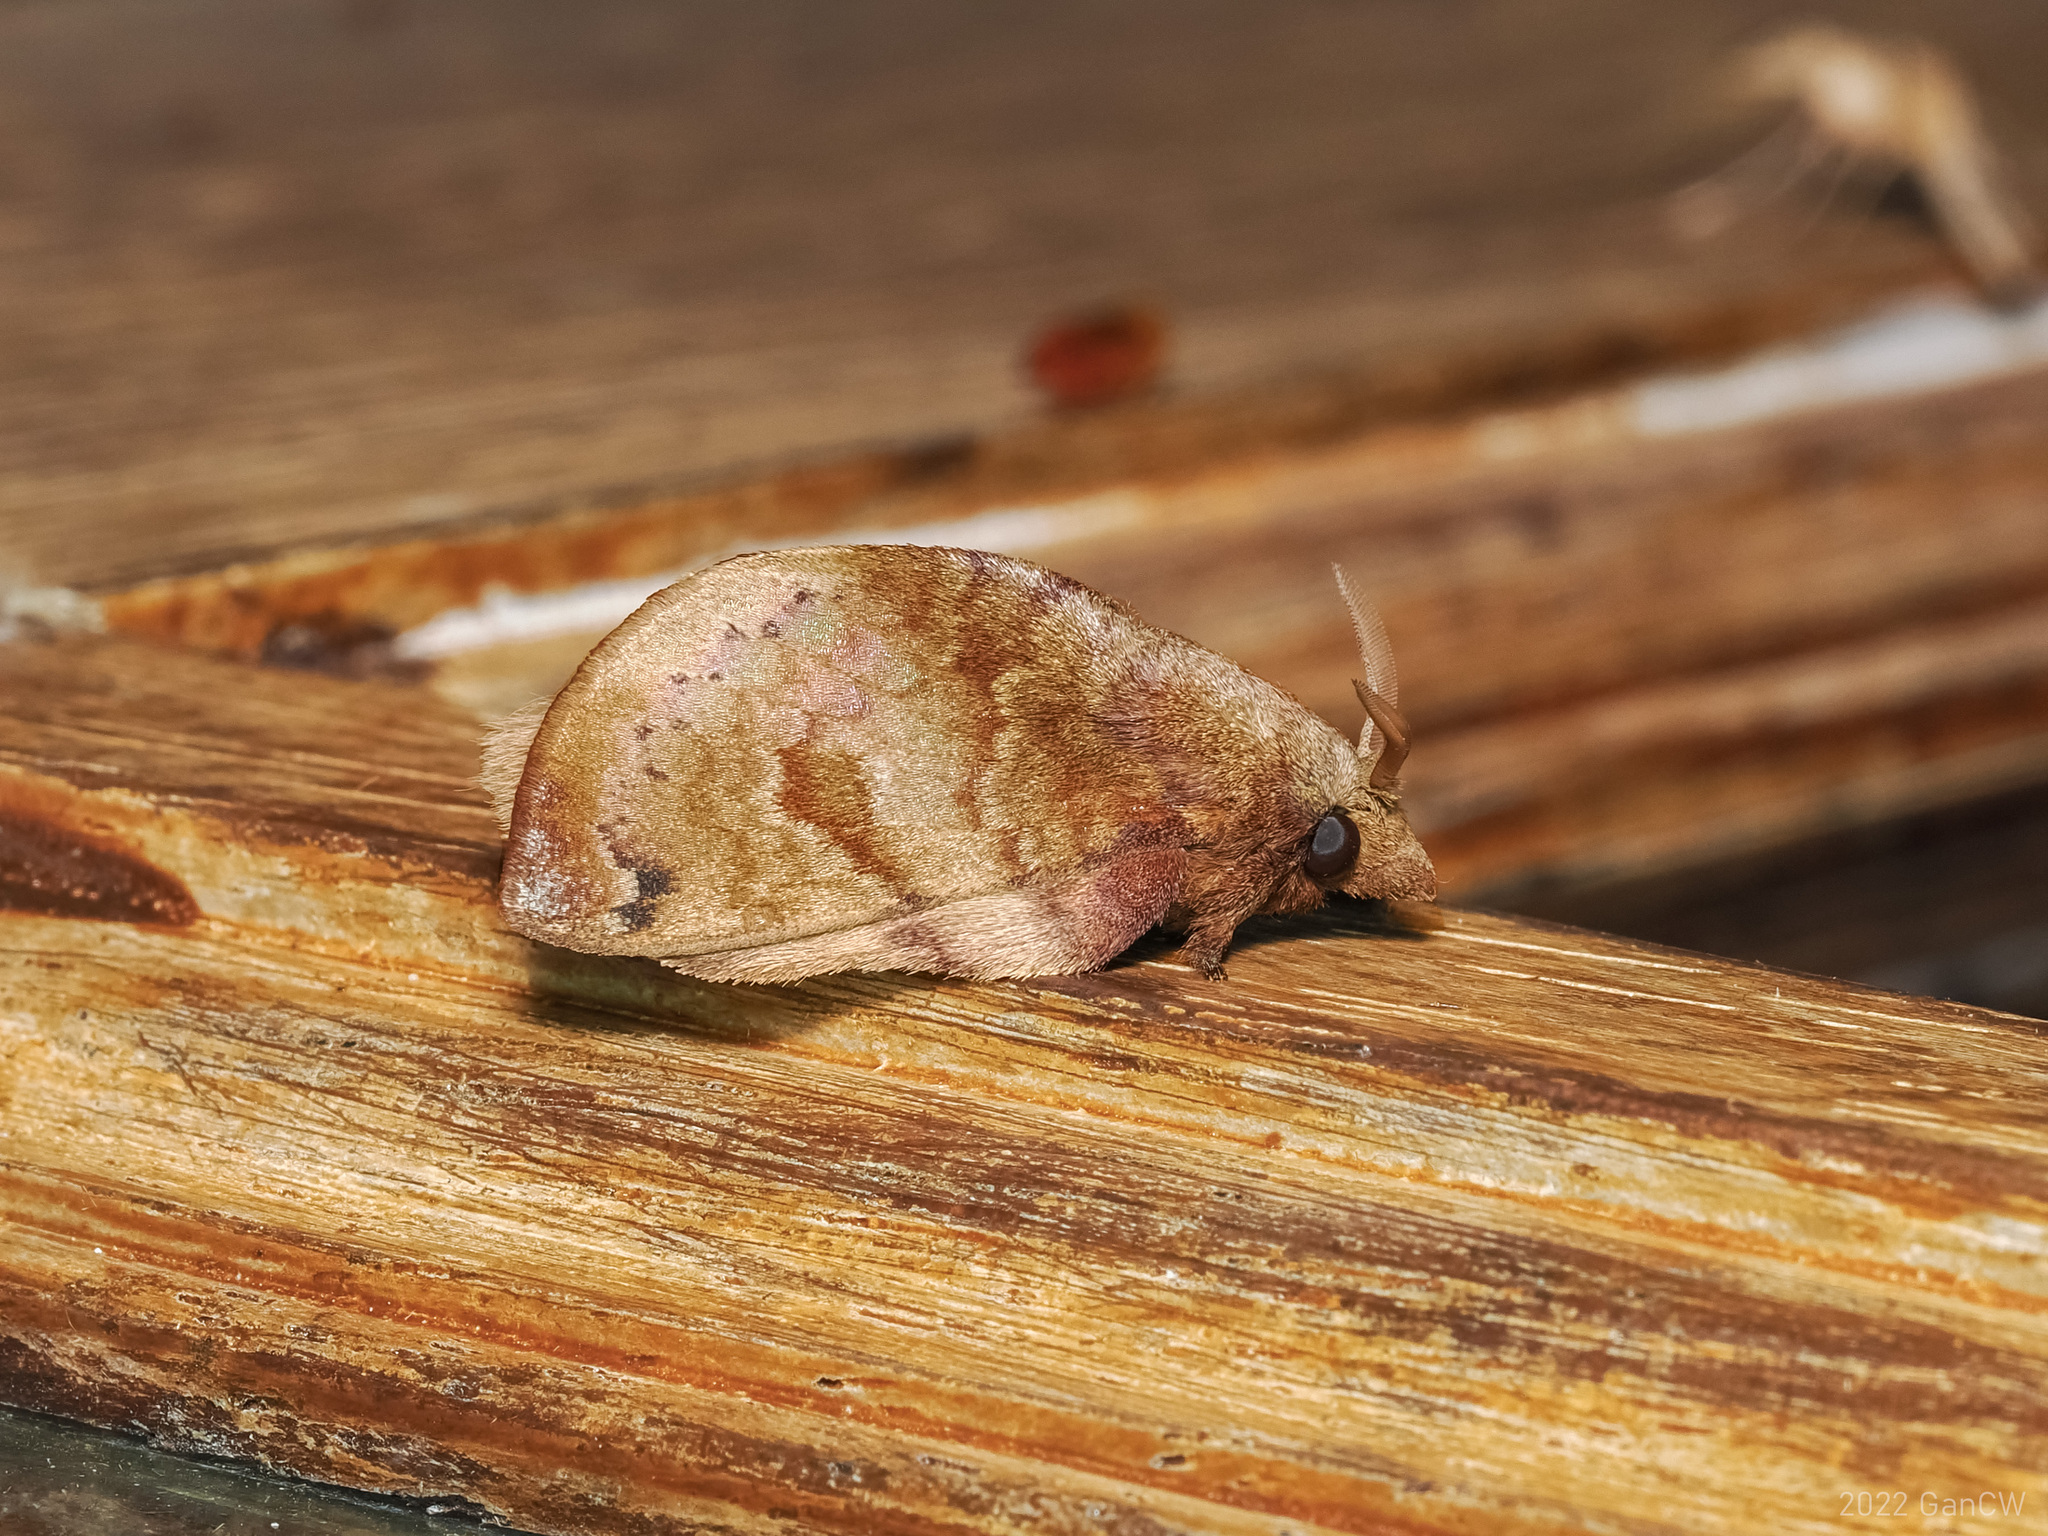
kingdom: Animalia
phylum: Arthropoda
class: Insecta
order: Lepidoptera
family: Lasiocampidae
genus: Micropacha
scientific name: Micropacha roepkei
